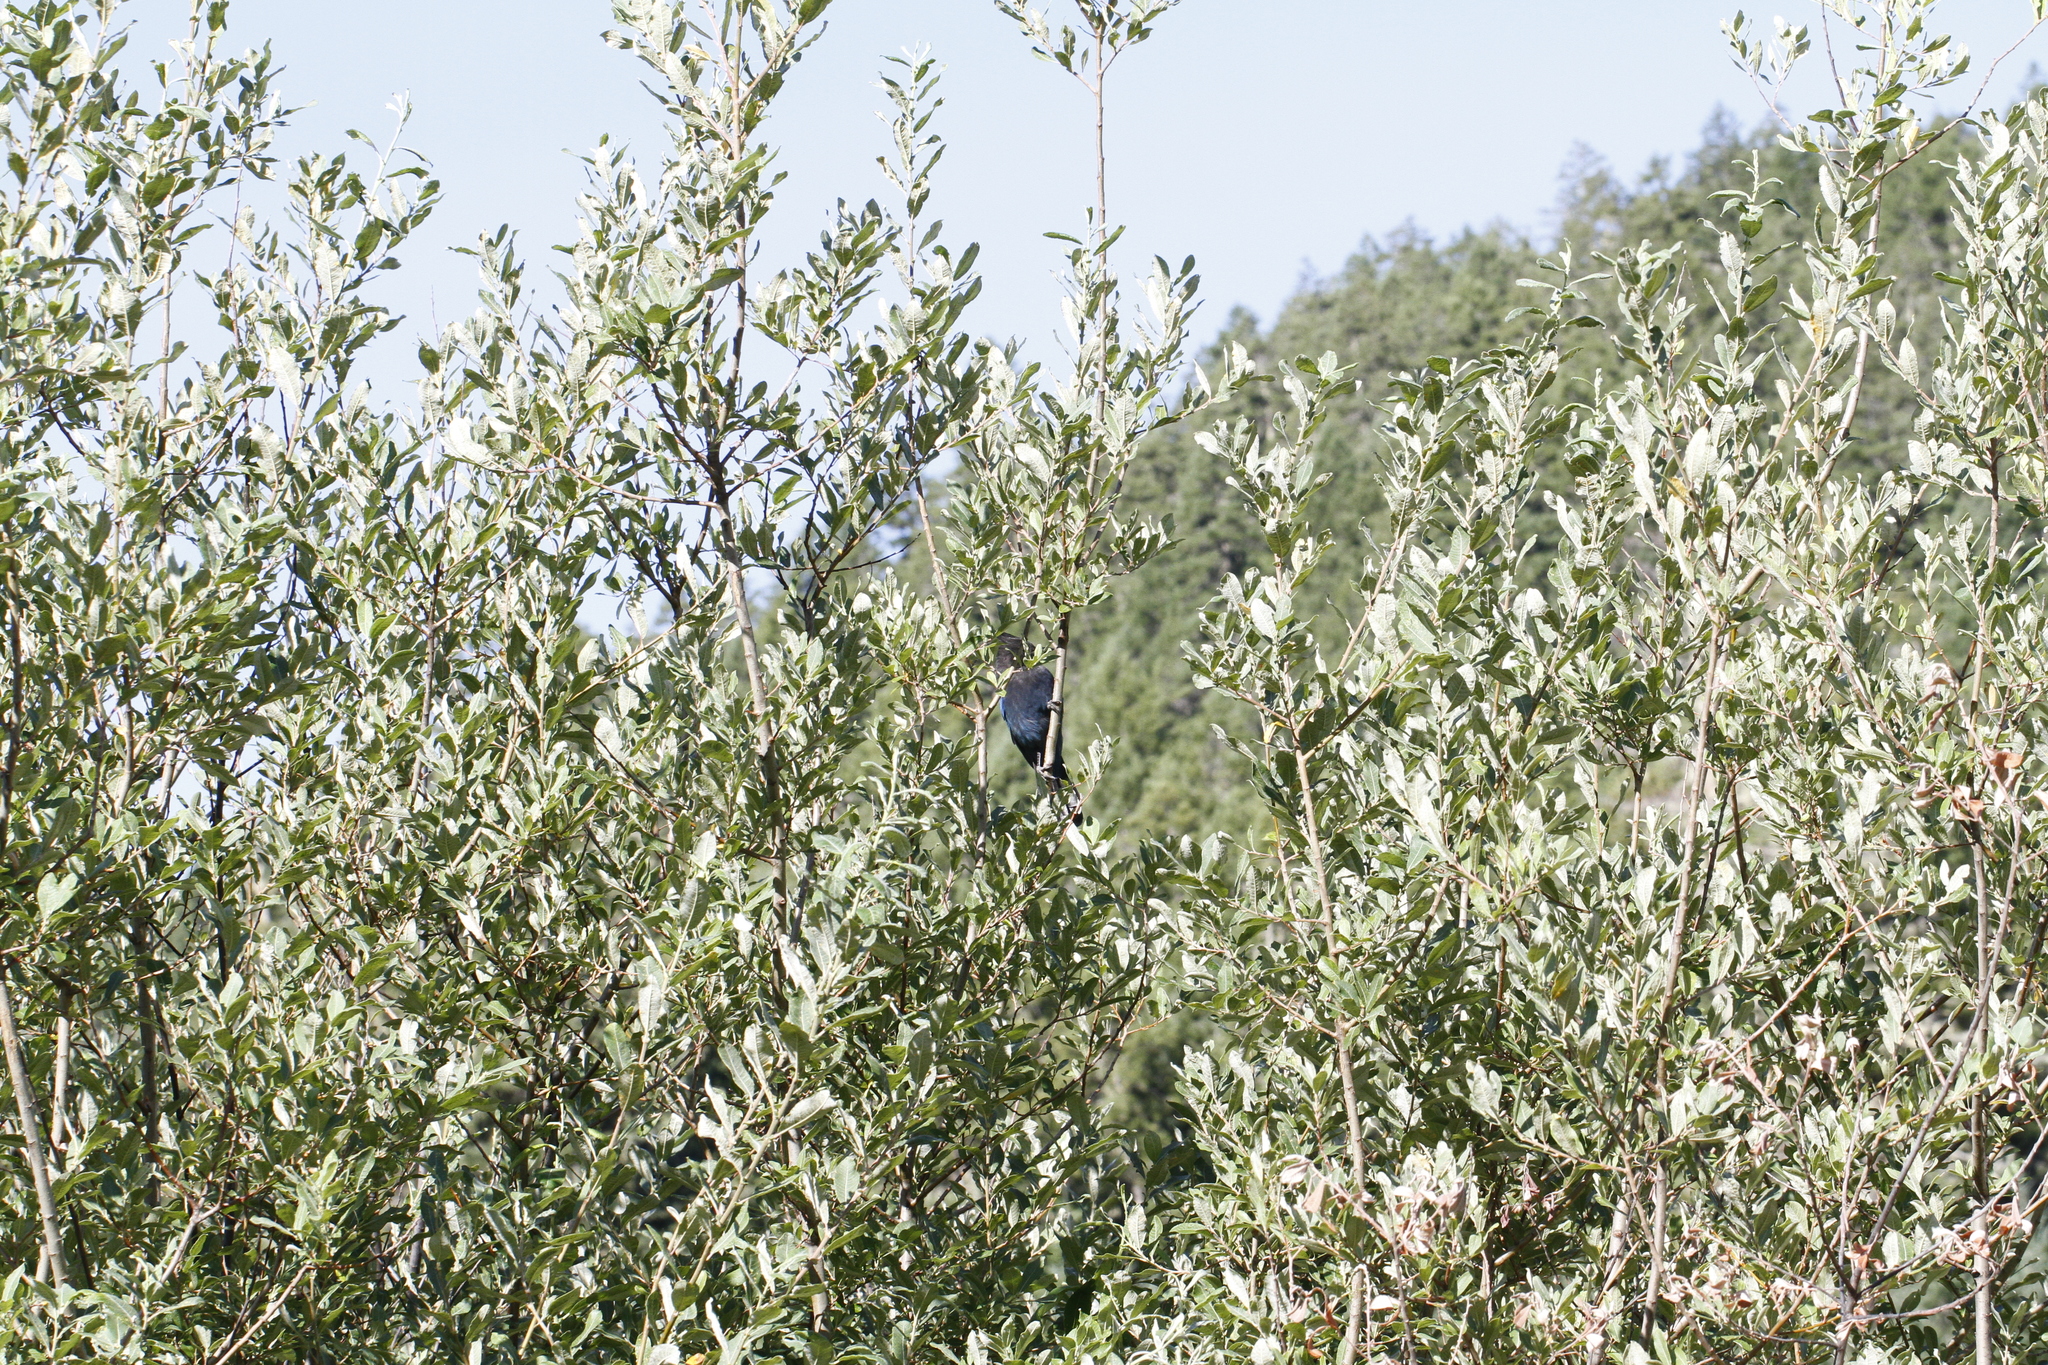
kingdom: Animalia
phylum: Chordata
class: Aves
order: Passeriformes
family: Corvidae
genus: Cyanocitta
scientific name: Cyanocitta stelleri
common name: Steller's jay
